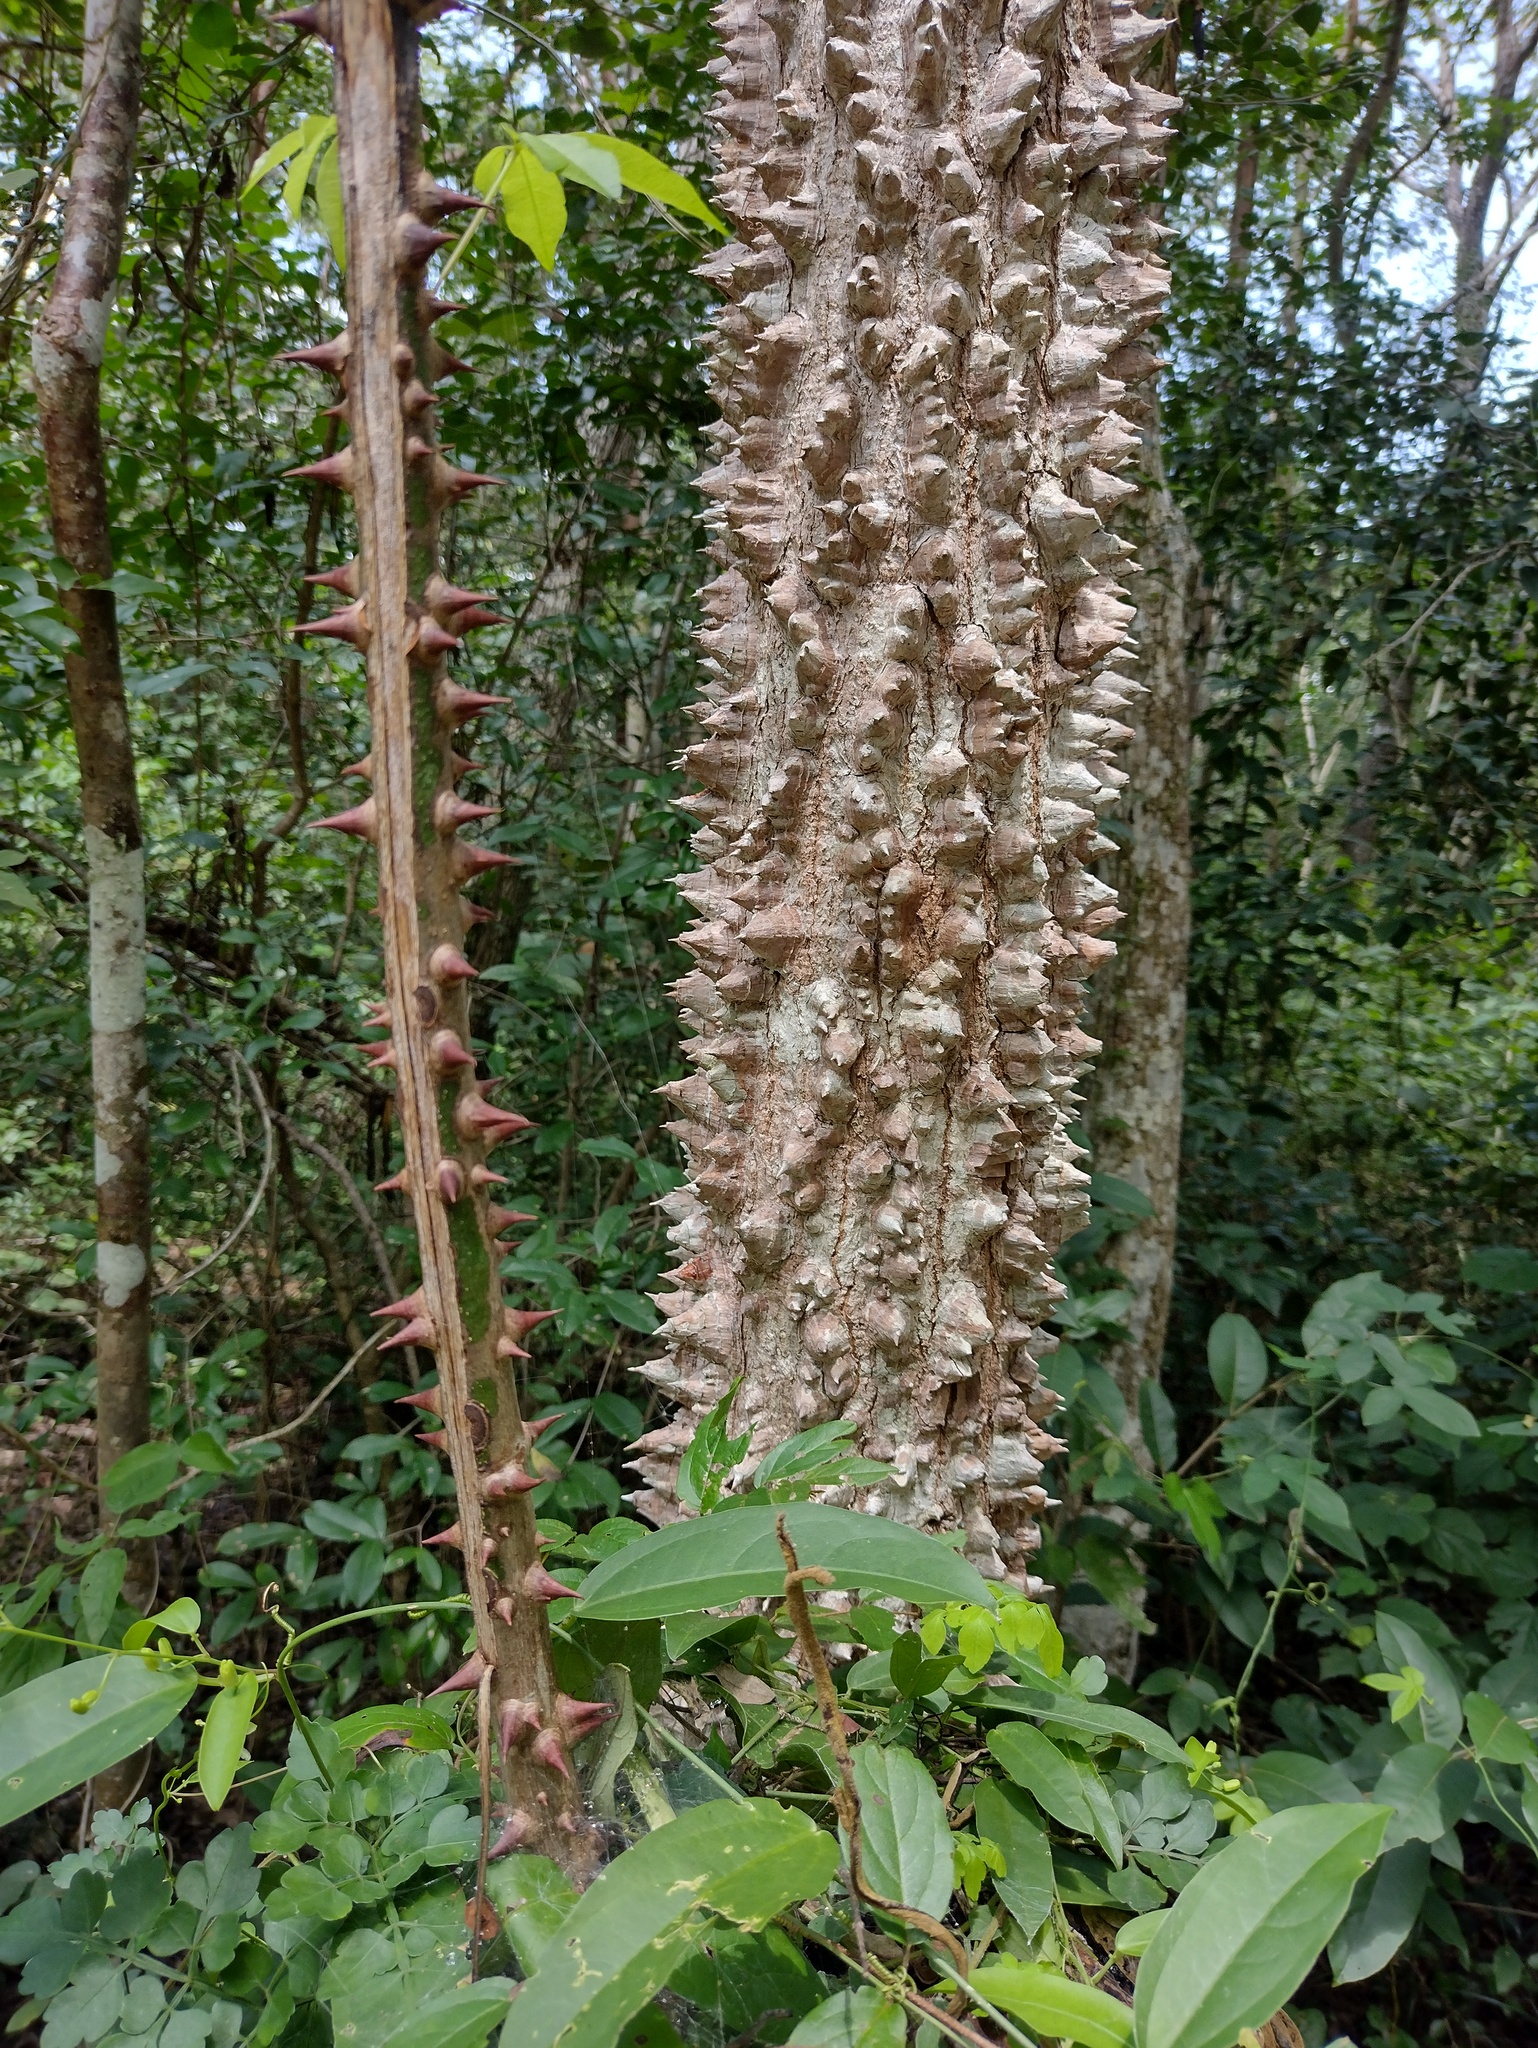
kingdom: Plantae
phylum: Tracheophyta
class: Magnoliopsida
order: Malvales
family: Malvaceae
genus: Ceiba
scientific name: Ceiba schottii
